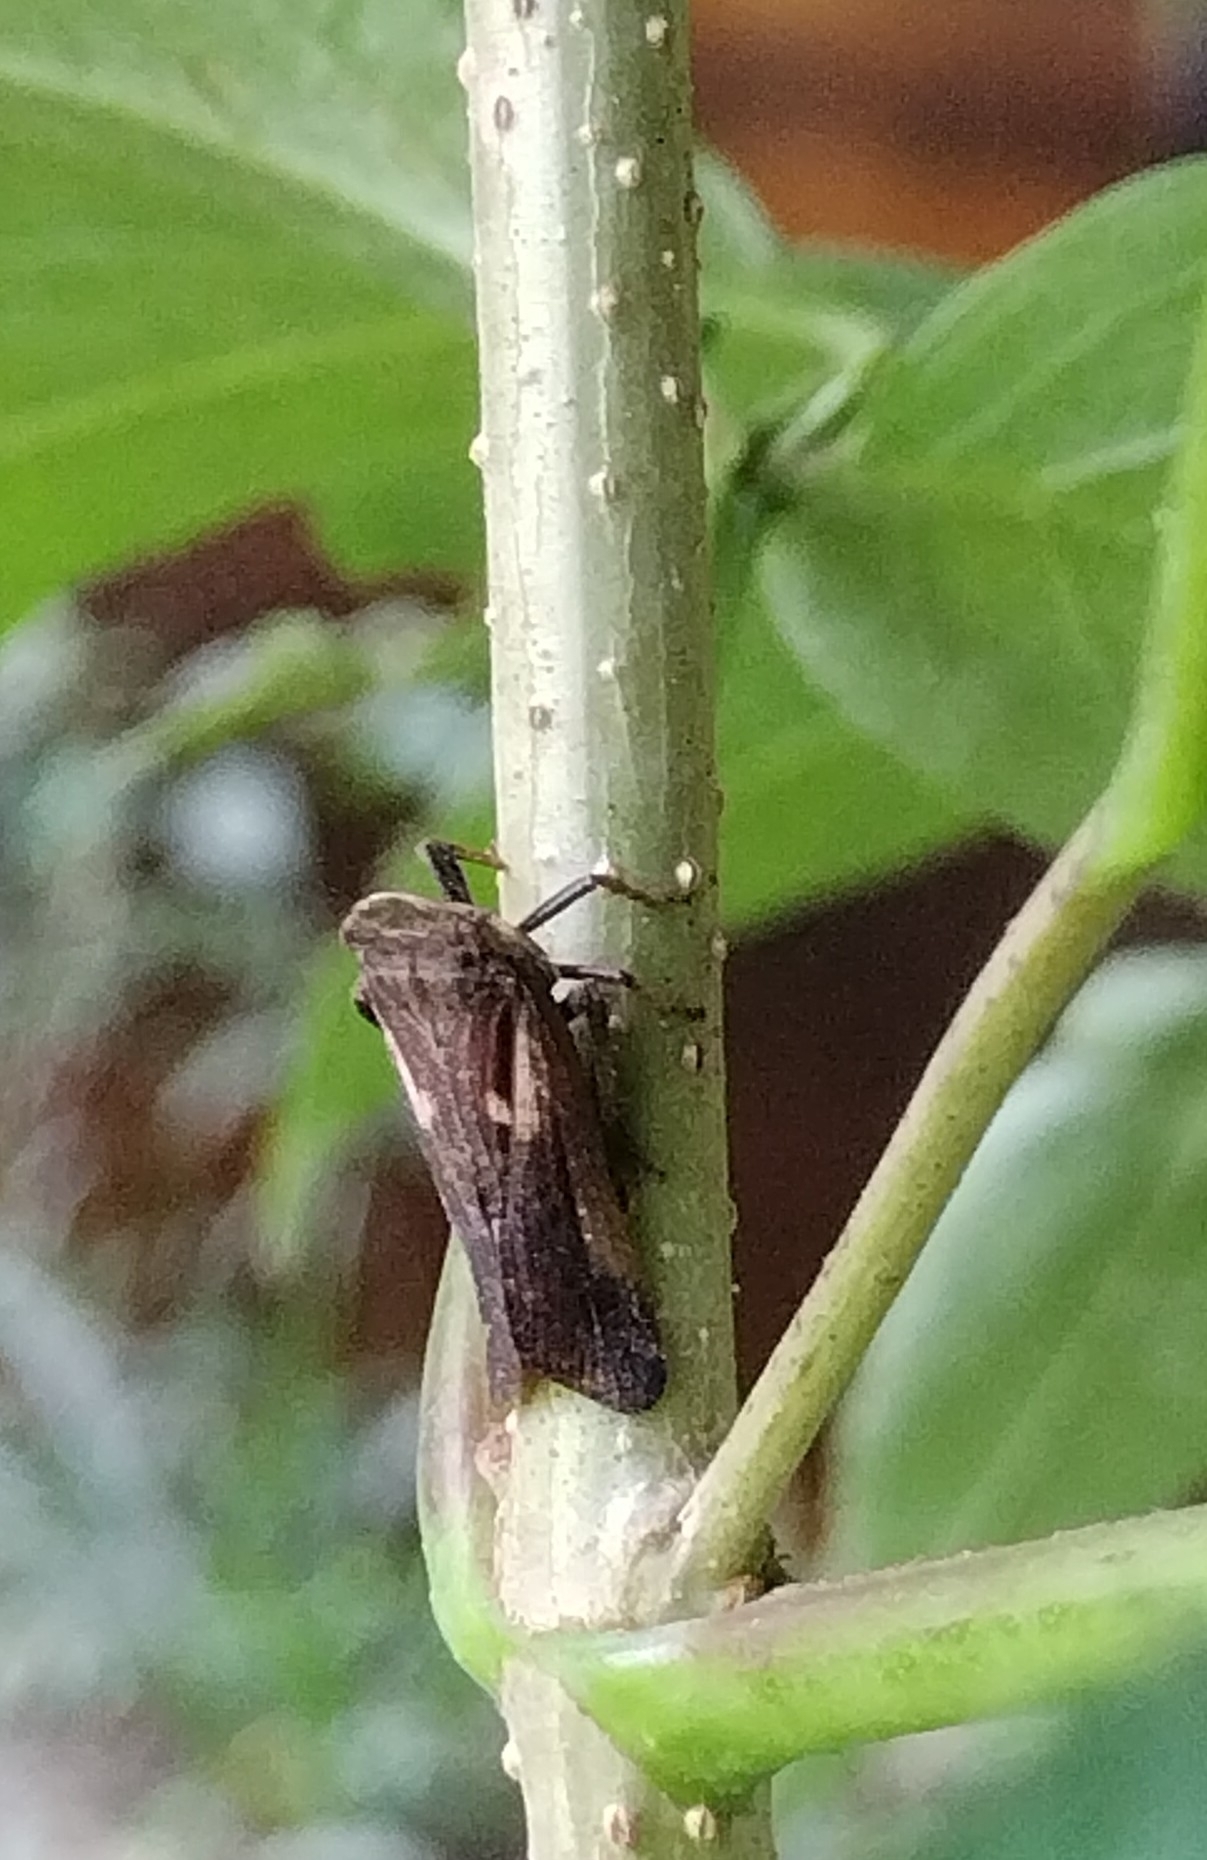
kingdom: Animalia
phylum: Arthropoda
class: Insecta
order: Hemiptera
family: Fulgoridae
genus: Cyrpoptus
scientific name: Cyrpoptus belfragei
